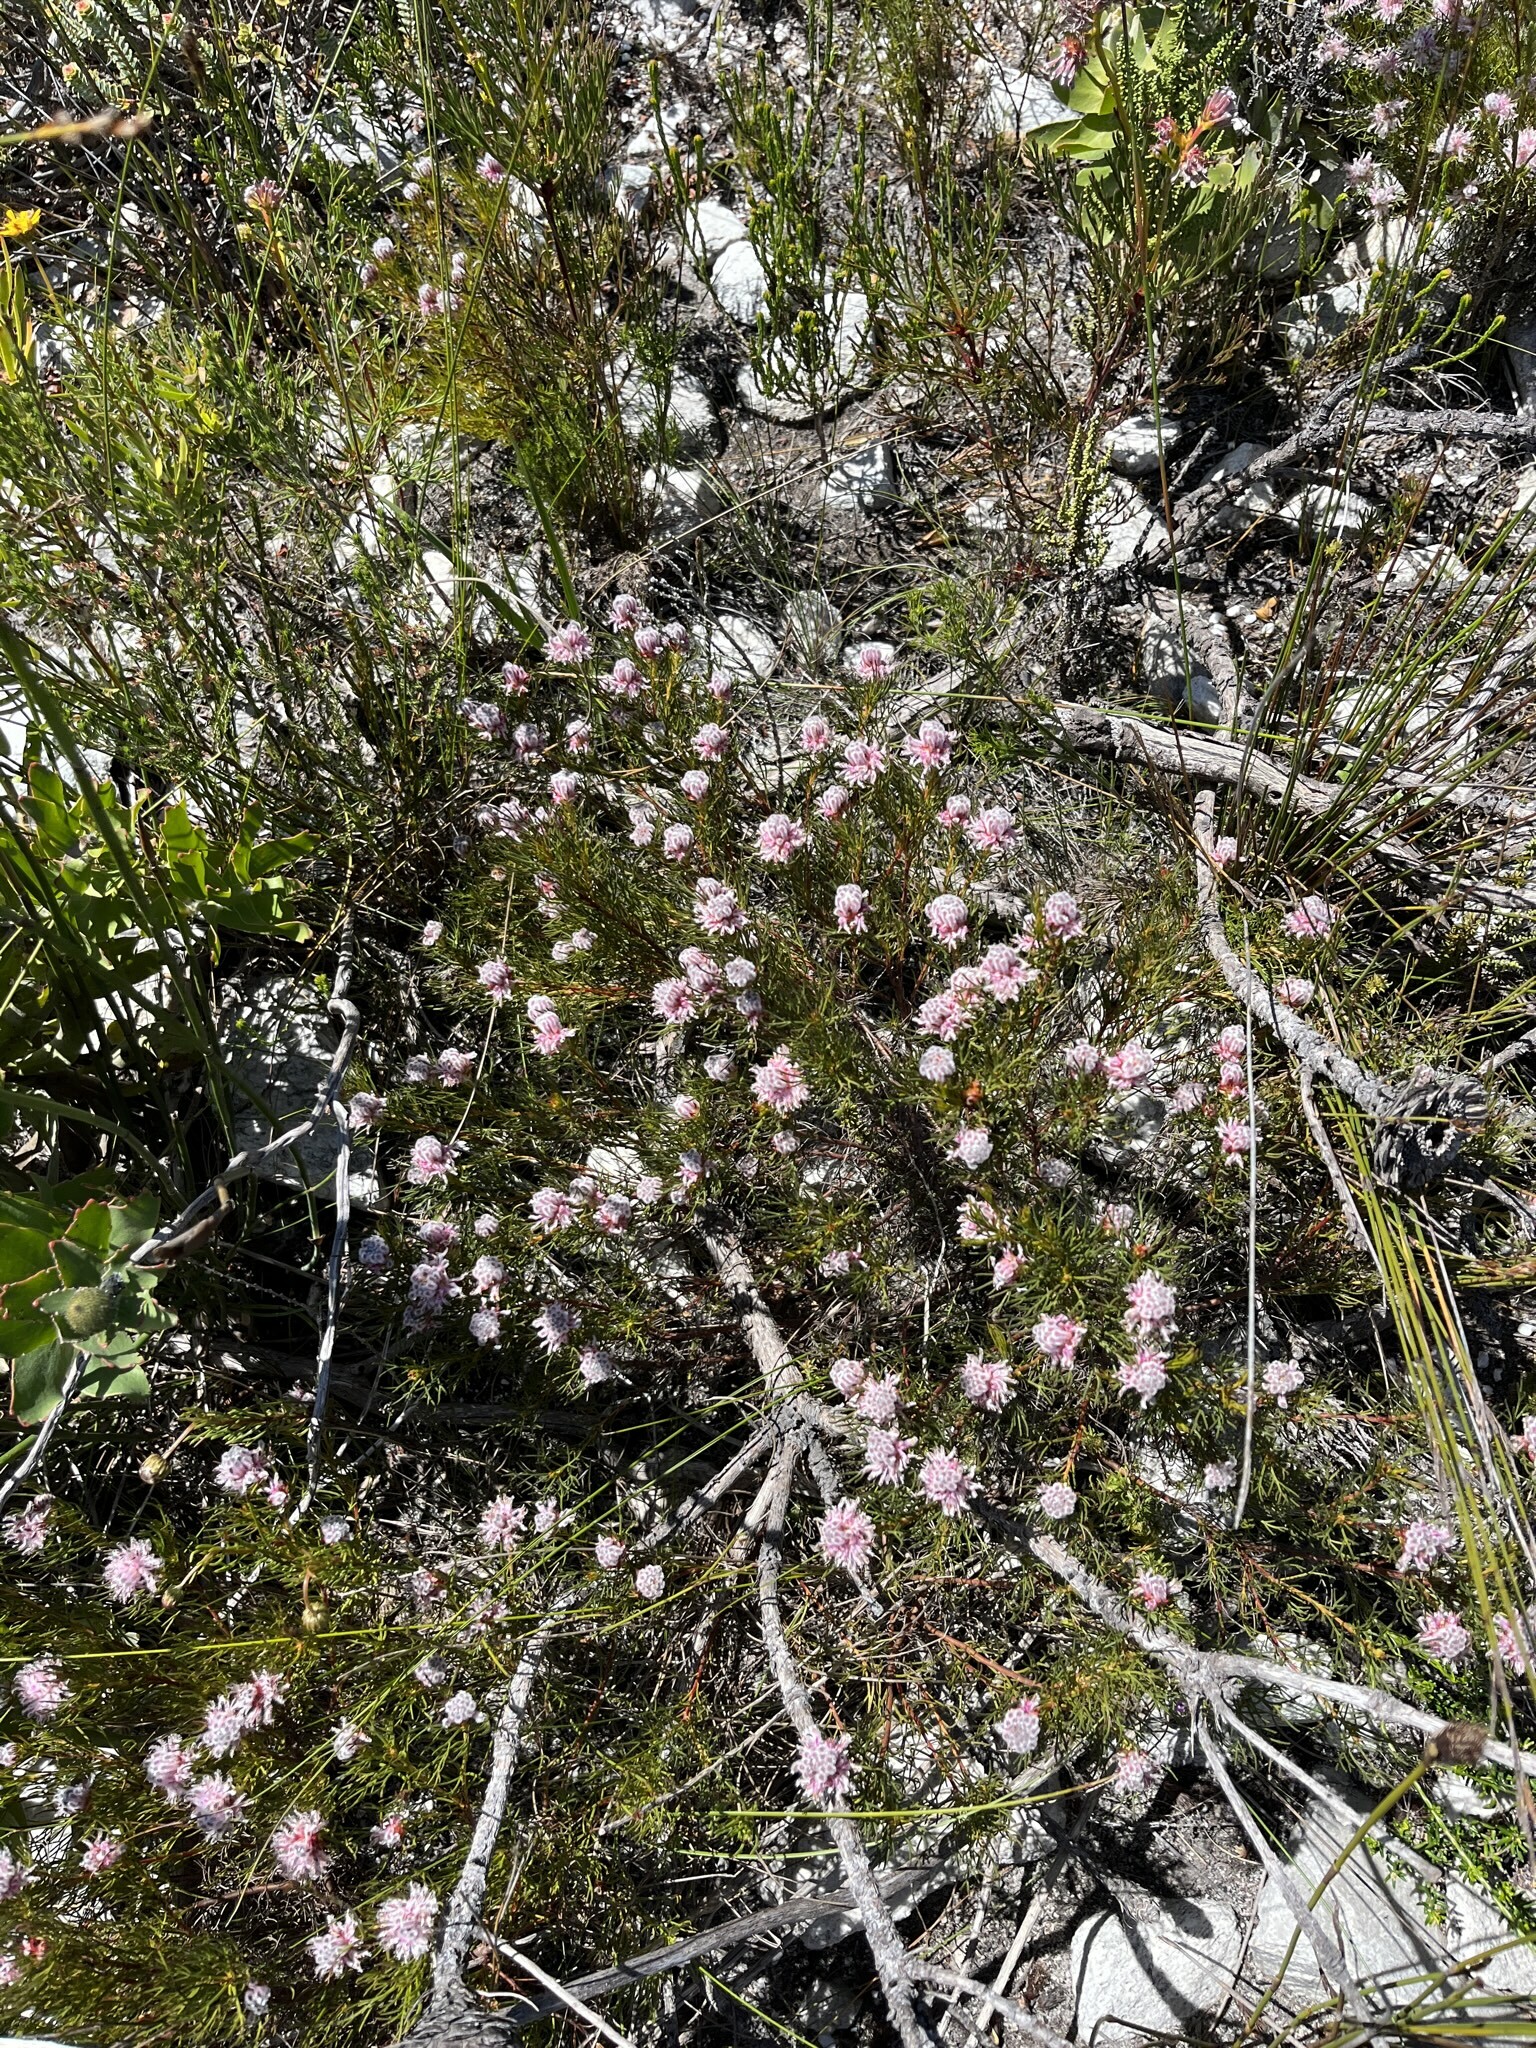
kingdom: Plantae
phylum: Tracheophyta
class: Magnoliopsida
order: Proteales
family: Proteaceae
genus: Serruria
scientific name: Serruria nervosa
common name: Fluted spiderhead
